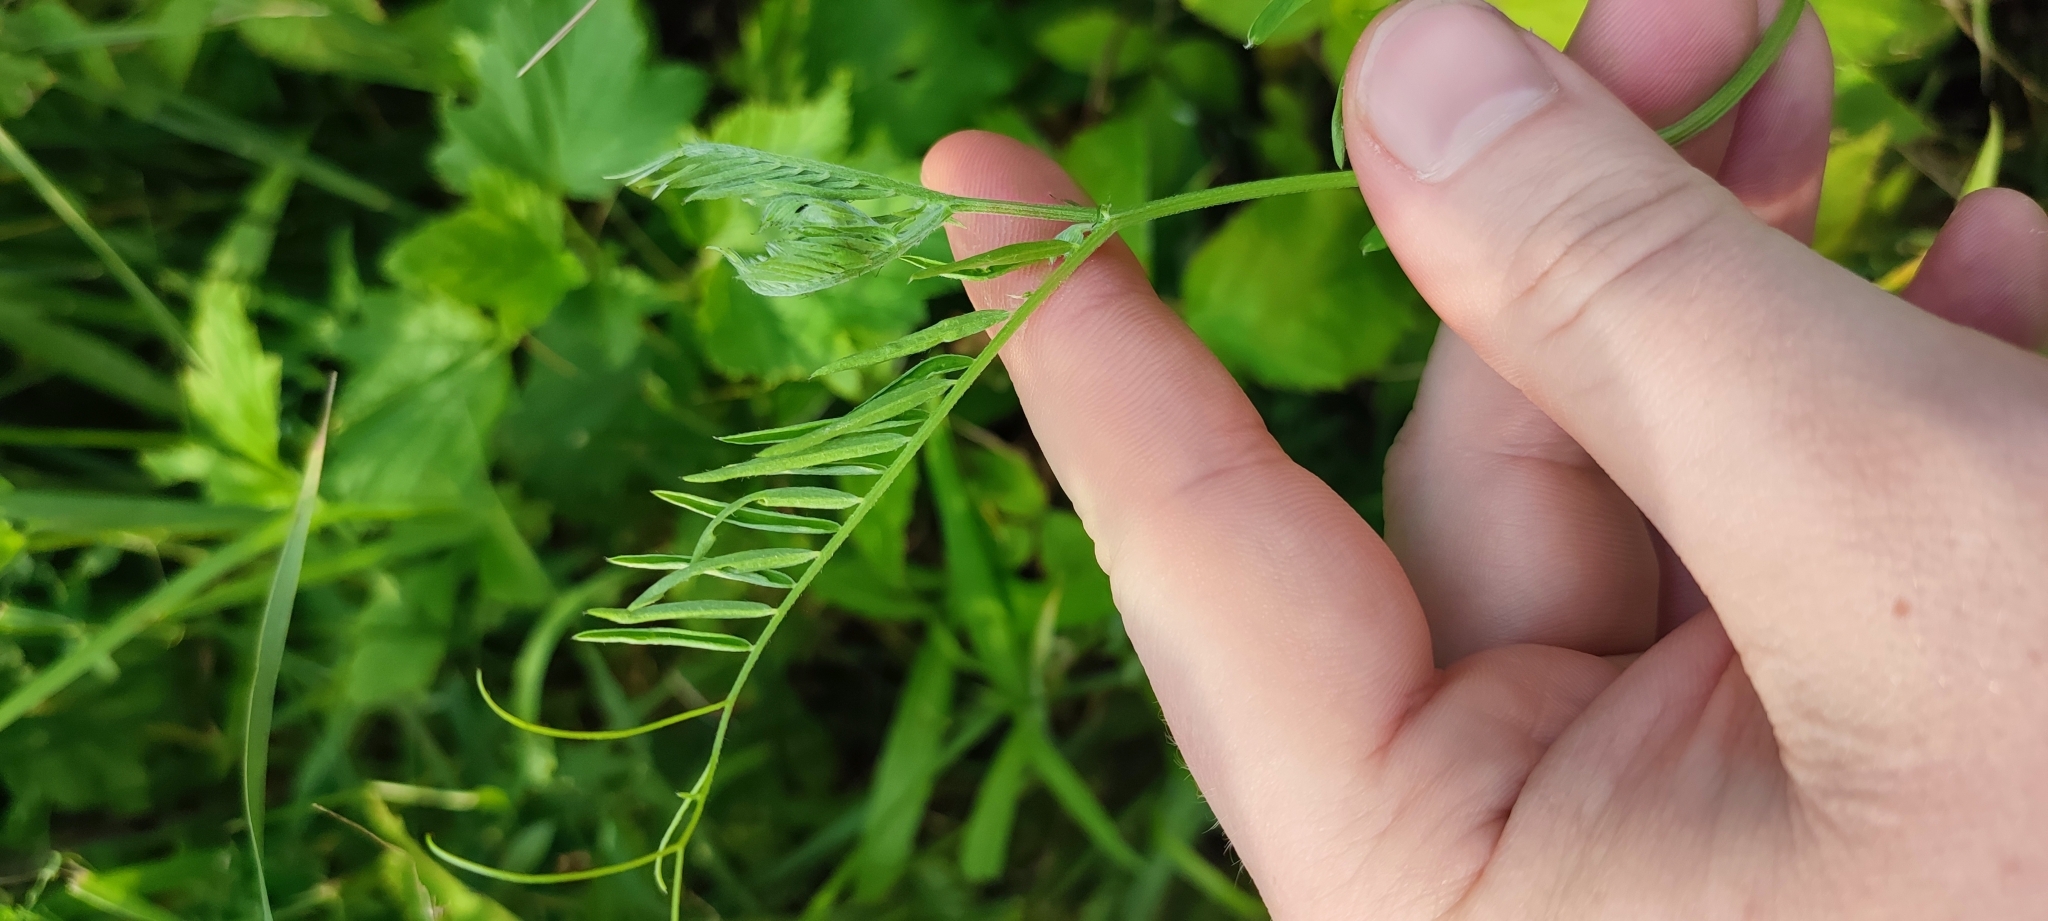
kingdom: Plantae
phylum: Tracheophyta
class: Magnoliopsida
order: Fabales
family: Fabaceae
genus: Vicia
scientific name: Vicia cracca
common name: Bird vetch
